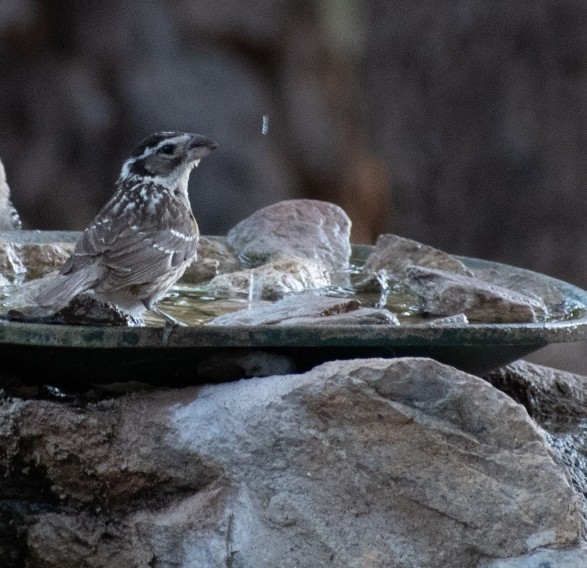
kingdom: Animalia
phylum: Chordata
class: Aves
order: Passeriformes
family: Cardinalidae
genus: Pheucticus
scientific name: Pheucticus melanocephalus
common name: Black-headed grosbeak
